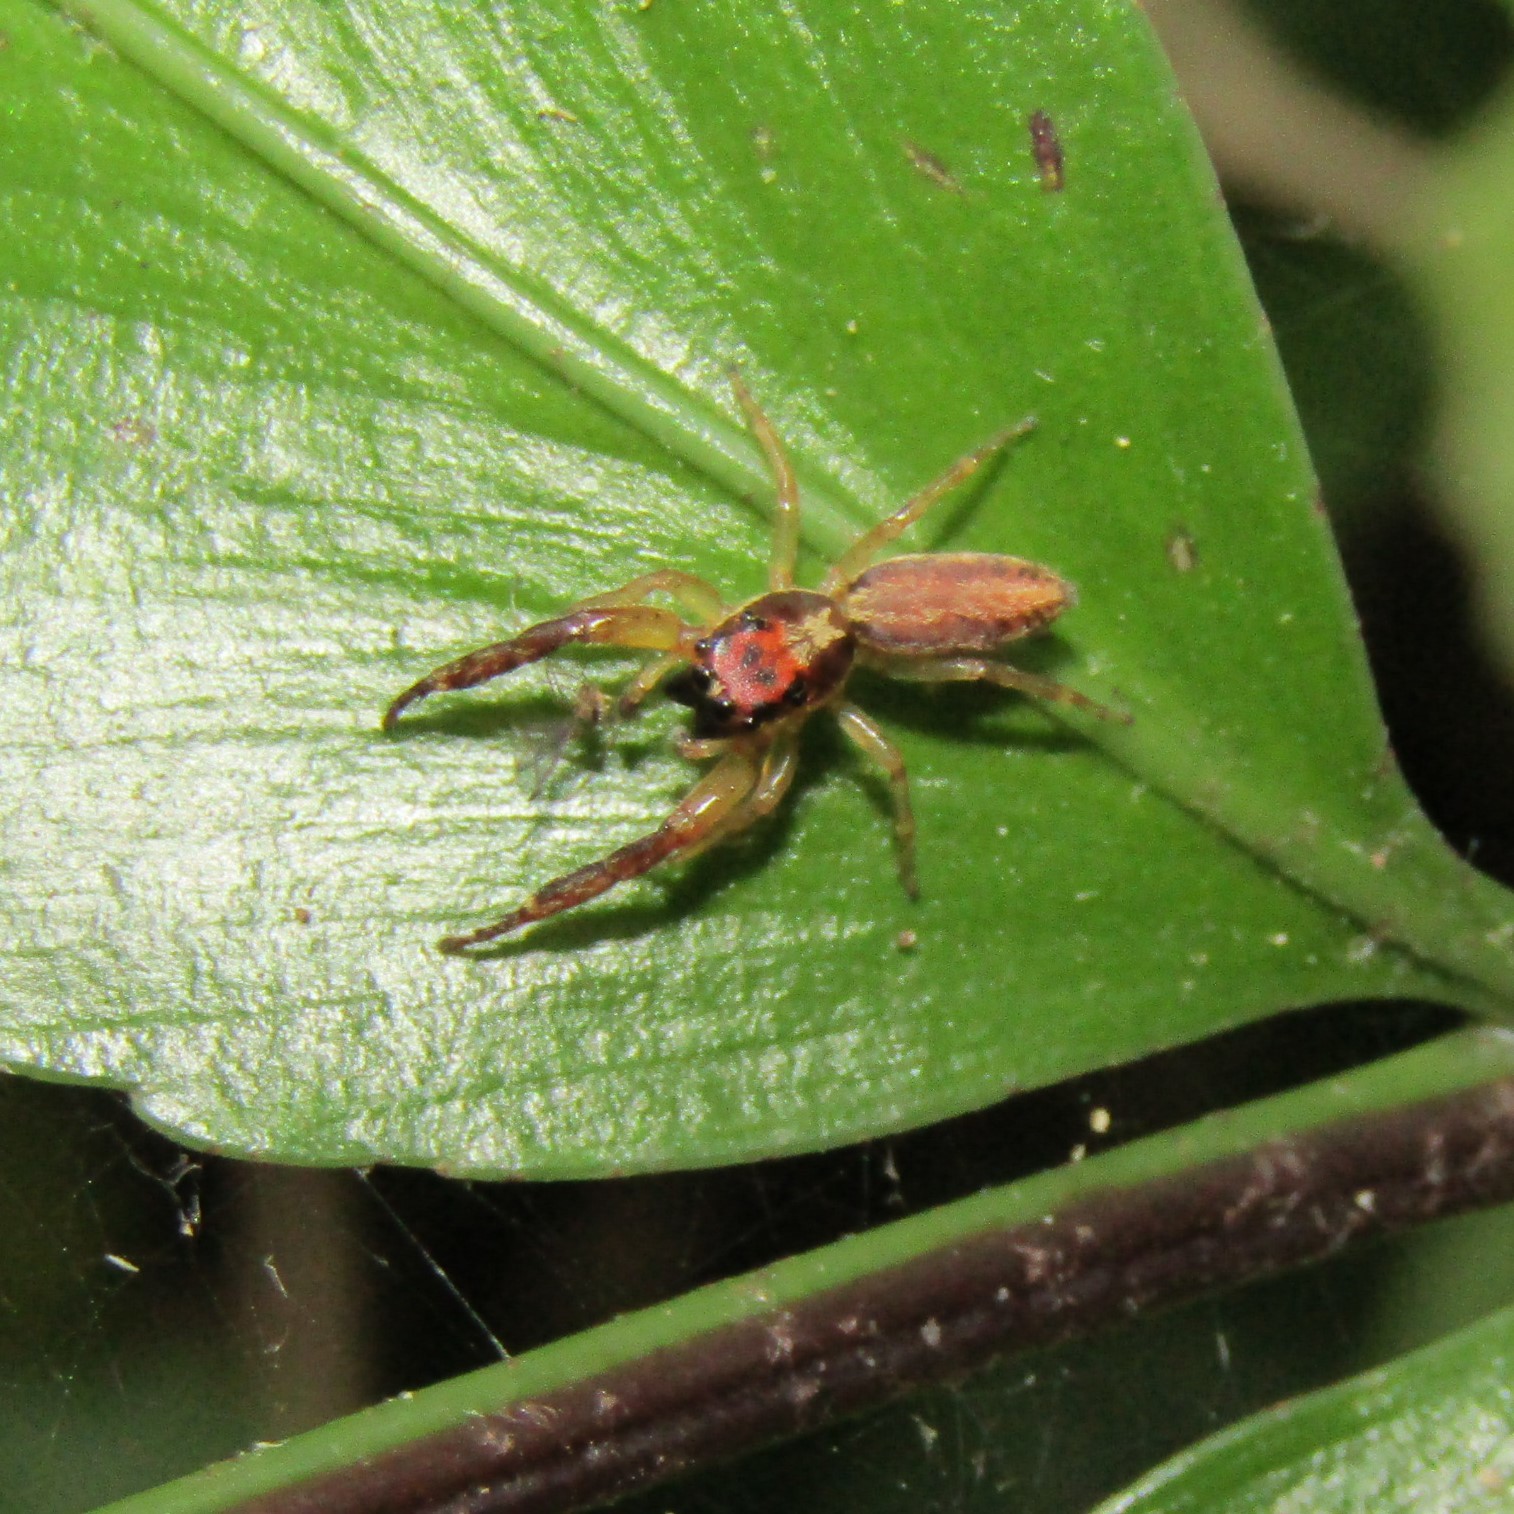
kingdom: Animalia
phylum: Arthropoda
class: Arachnida
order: Araneae
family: Salticidae
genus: Trite
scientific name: Trite mustilina
